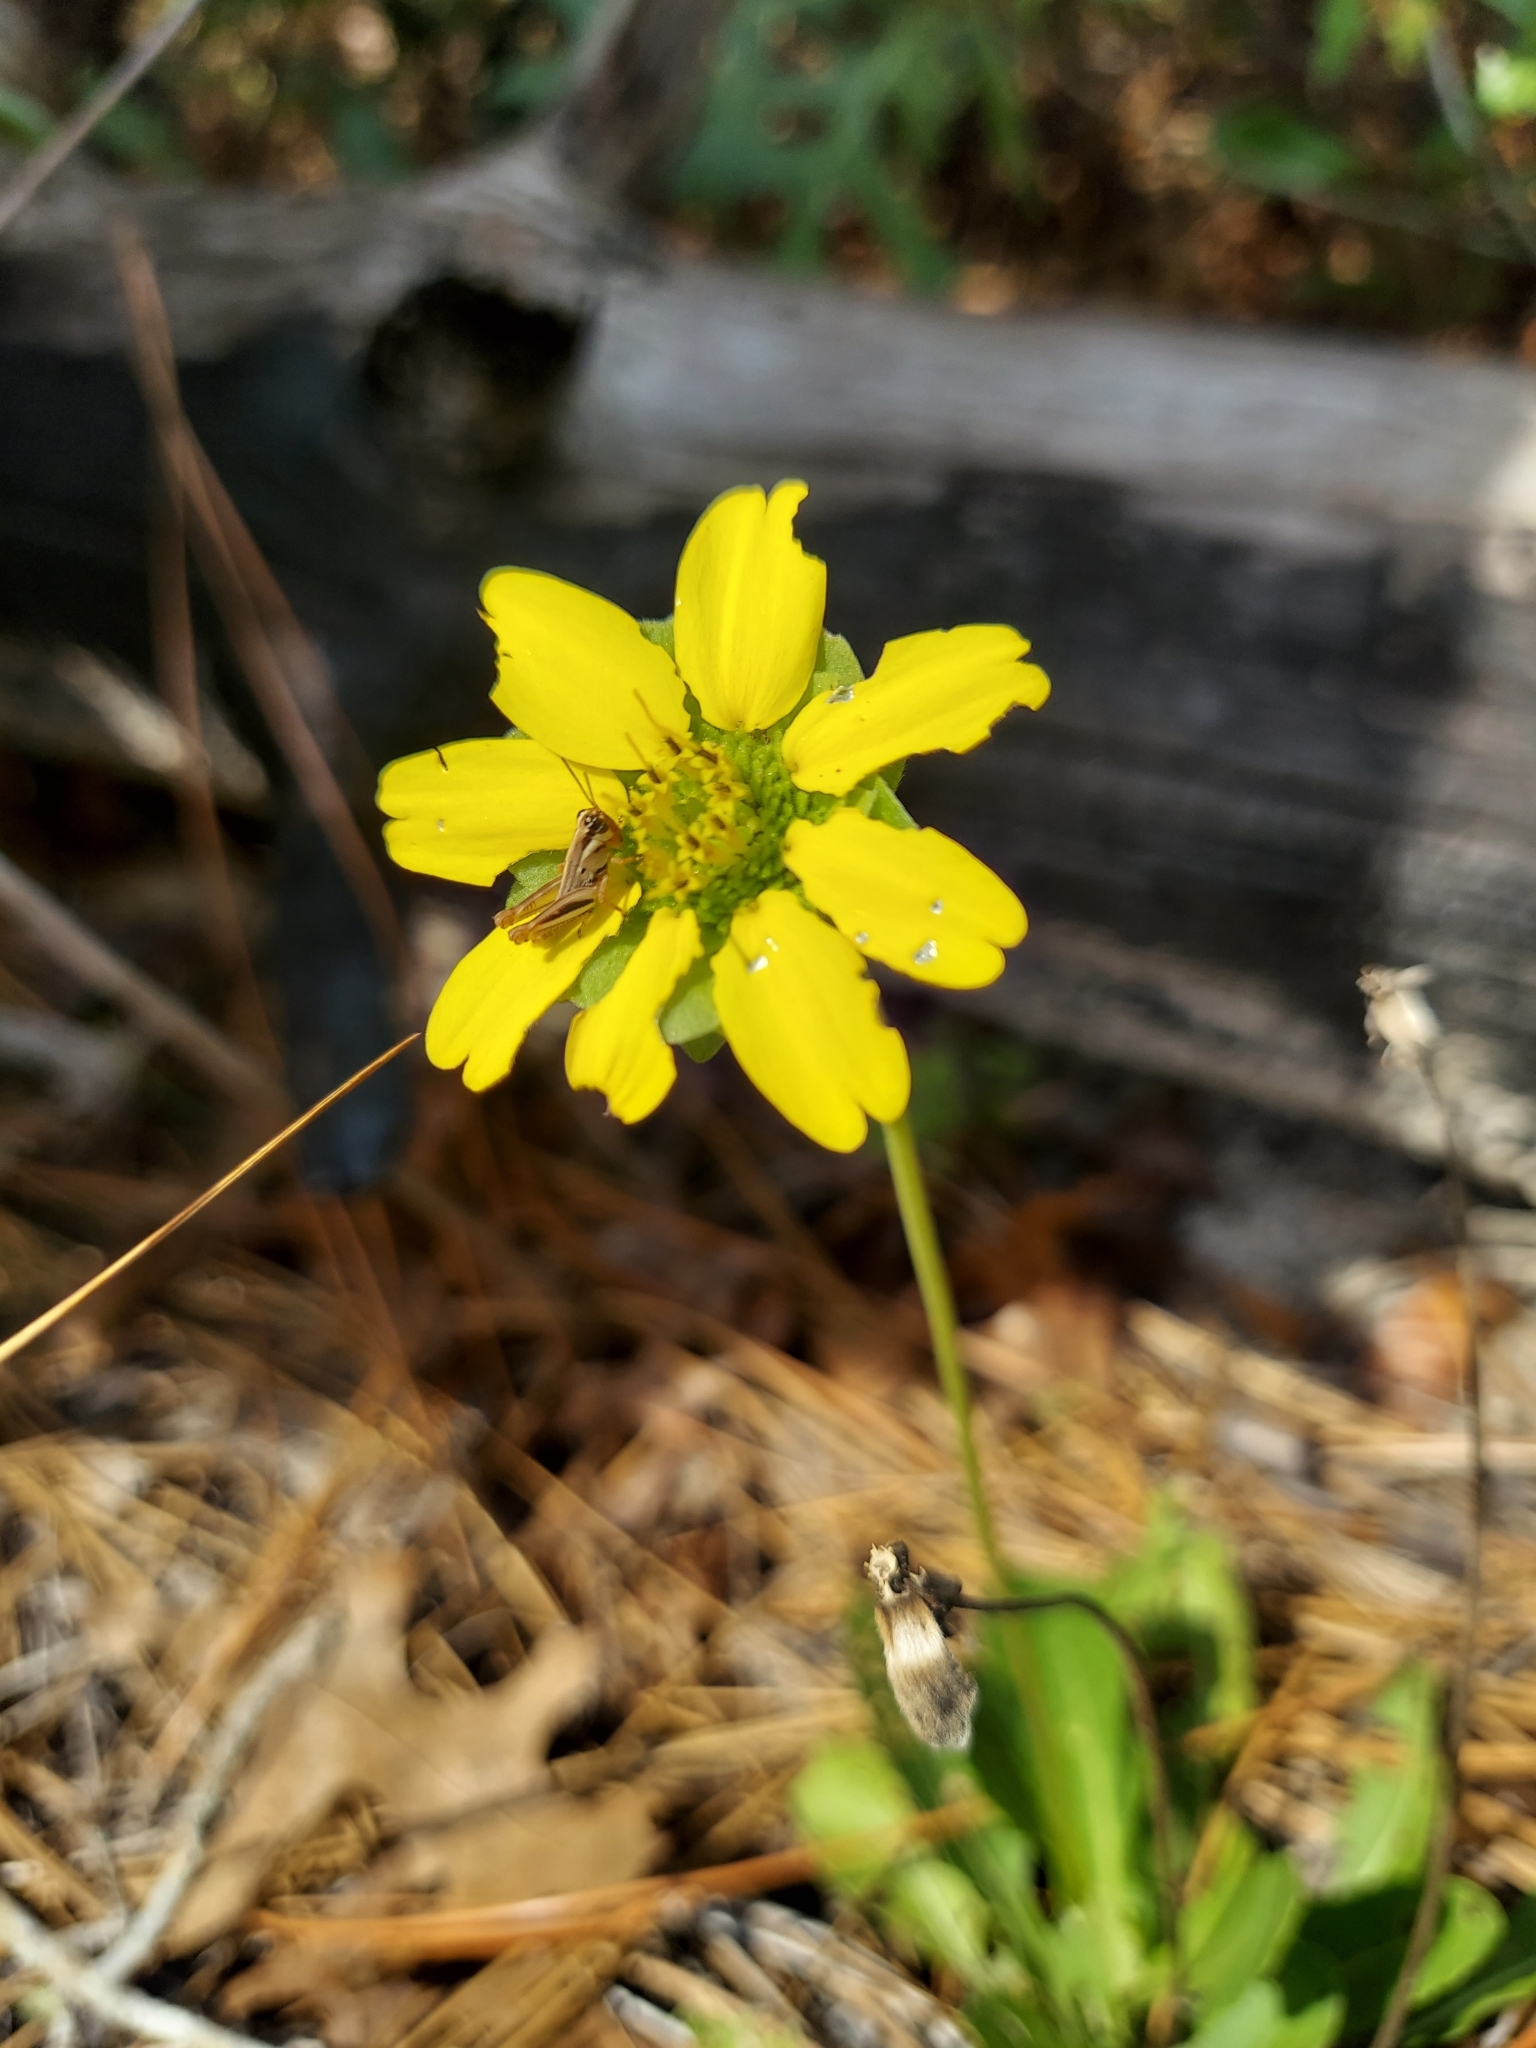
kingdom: Animalia
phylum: Arthropoda
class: Insecta
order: Orthoptera
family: Acrididae
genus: Melanoplus
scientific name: Melanoplus keeleri
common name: Keeler grasshopper
